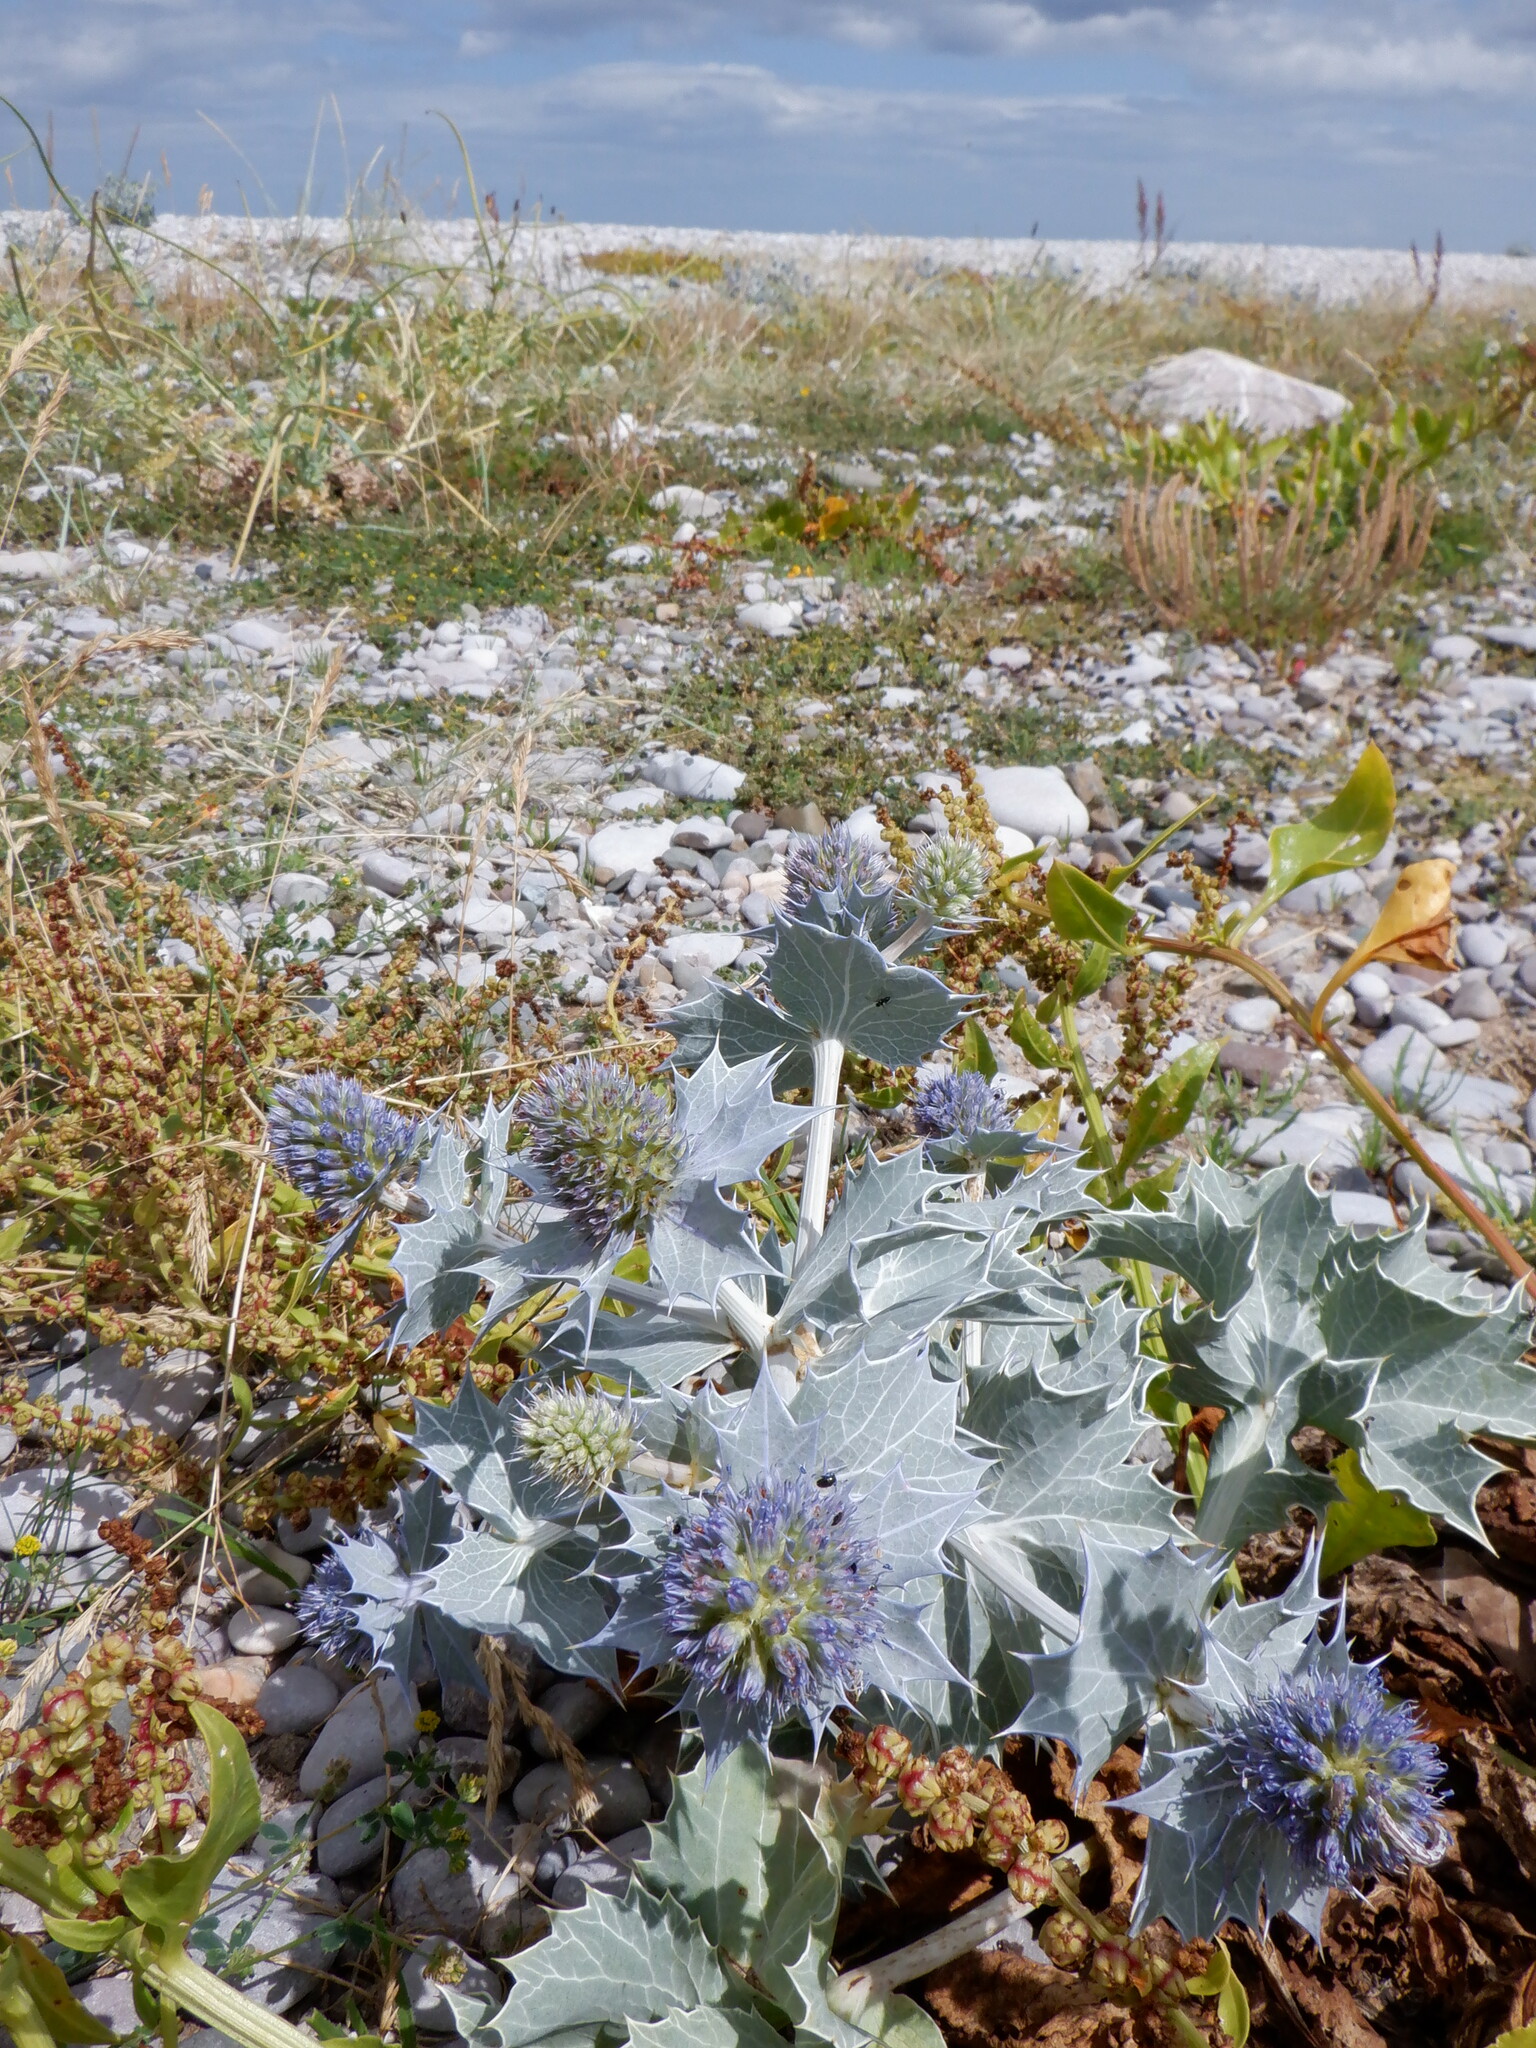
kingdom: Plantae
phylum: Tracheophyta
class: Magnoliopsida
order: Apiales
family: Apiaceae
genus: Eryngium
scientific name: Eryngium maritimum
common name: Sea-holly
